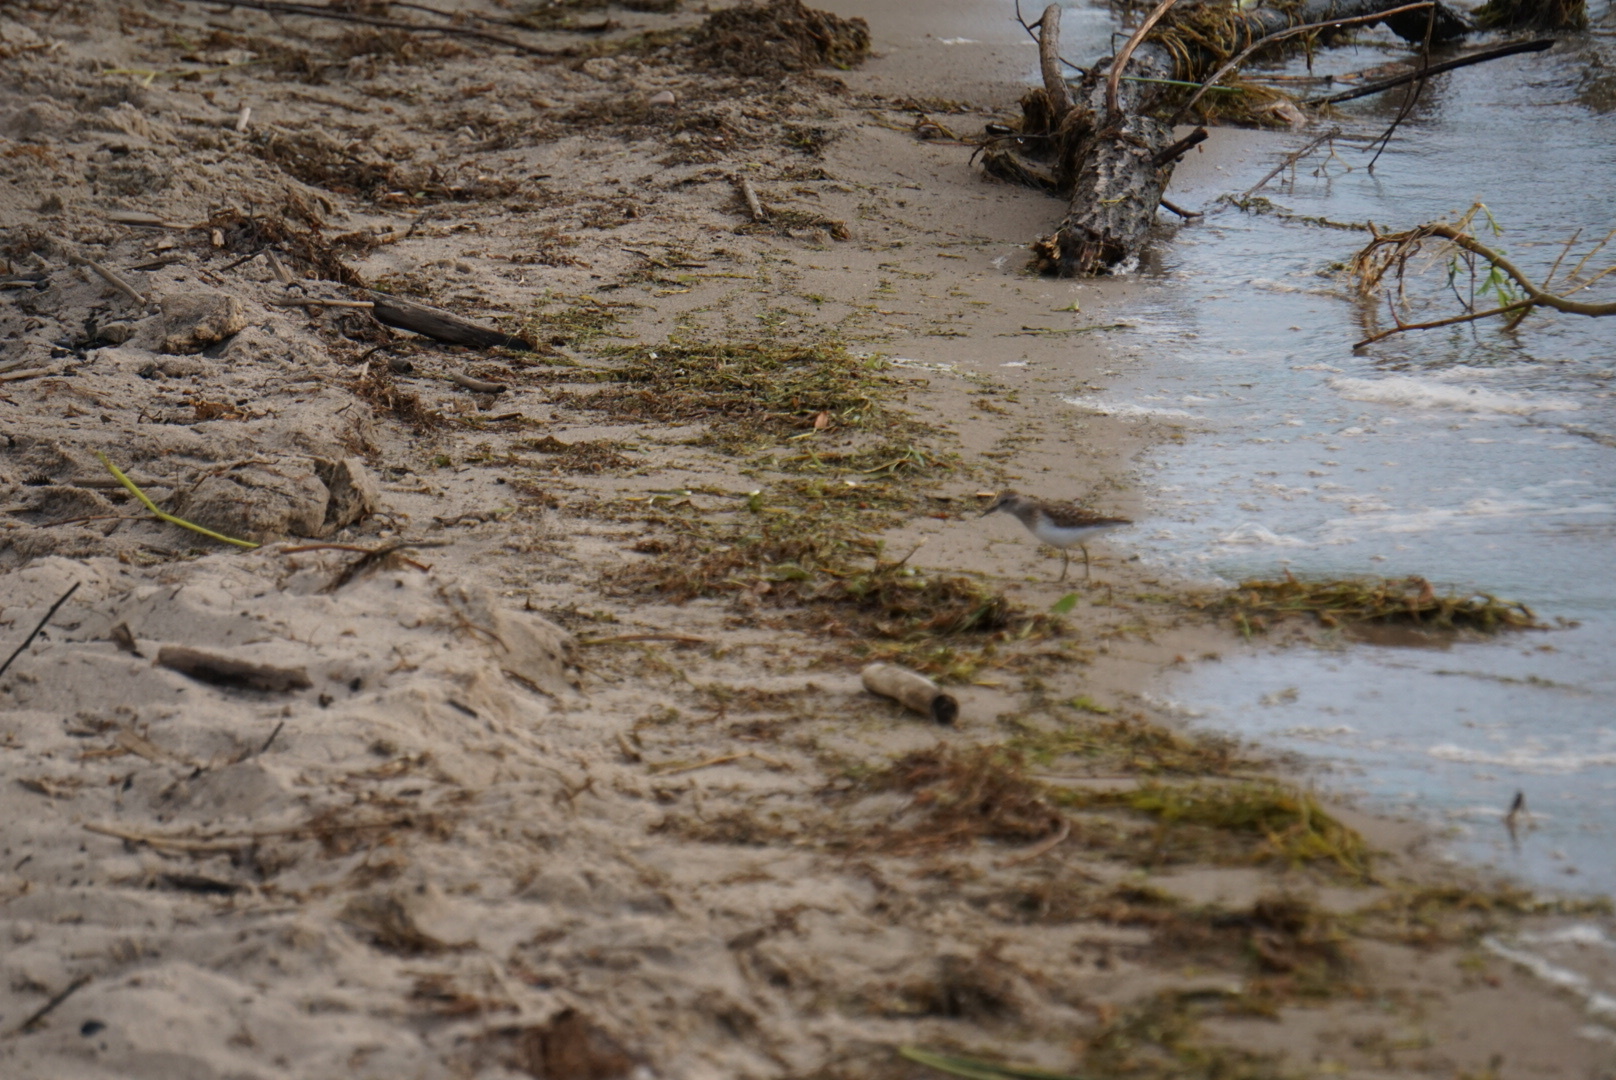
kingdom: Animalia
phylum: Chordata
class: Aves
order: Charadriiformes
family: Scolopacidae
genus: Calidris
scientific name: Calidris minutilla
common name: Least sandpiper
